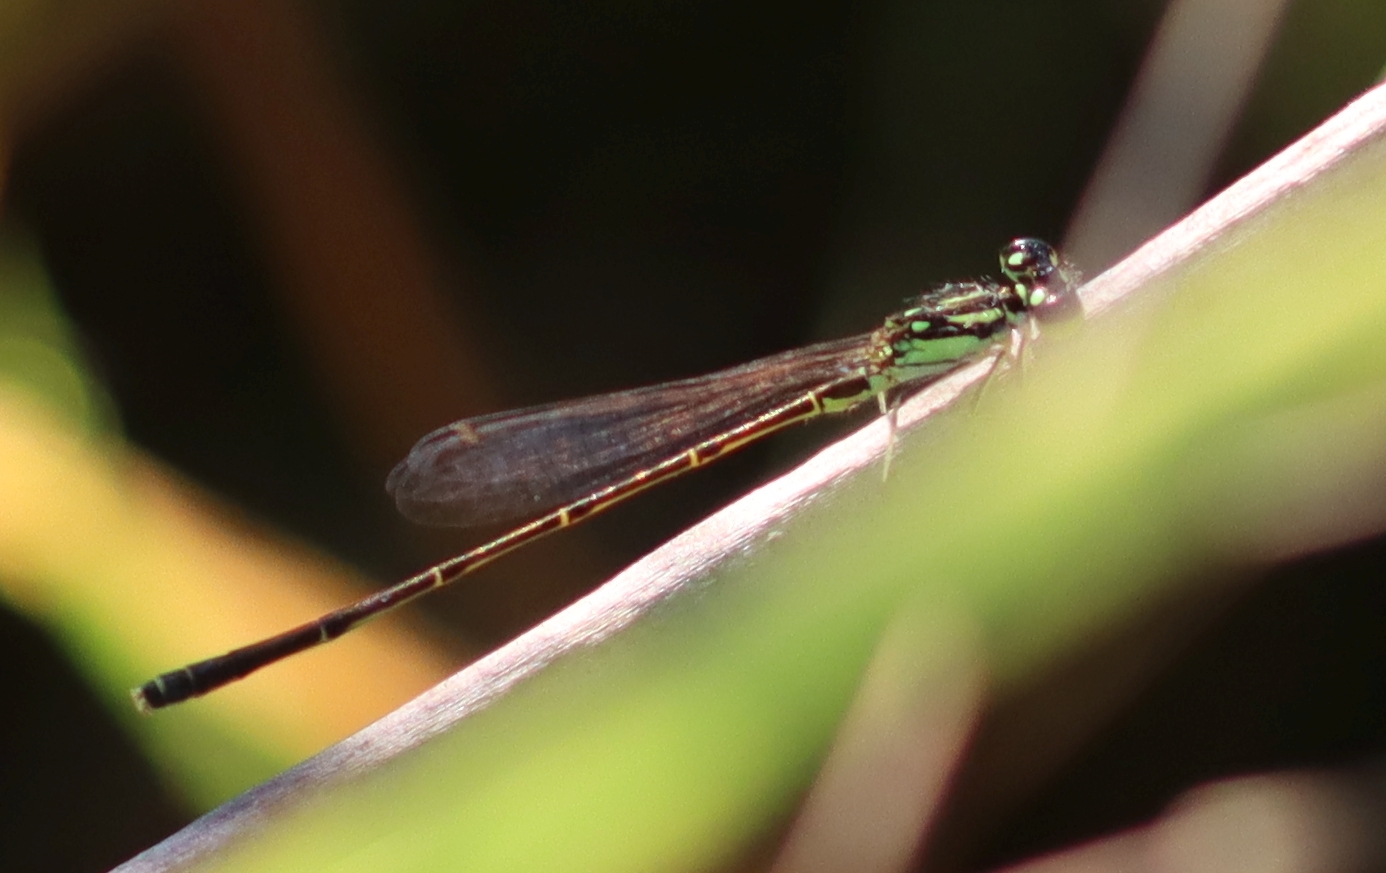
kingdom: Animalia
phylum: Arthropoda
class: Insecta
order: Odonata
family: Coenagrionidae
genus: Ischnura
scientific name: Ischnura posita
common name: Fragile forktail
